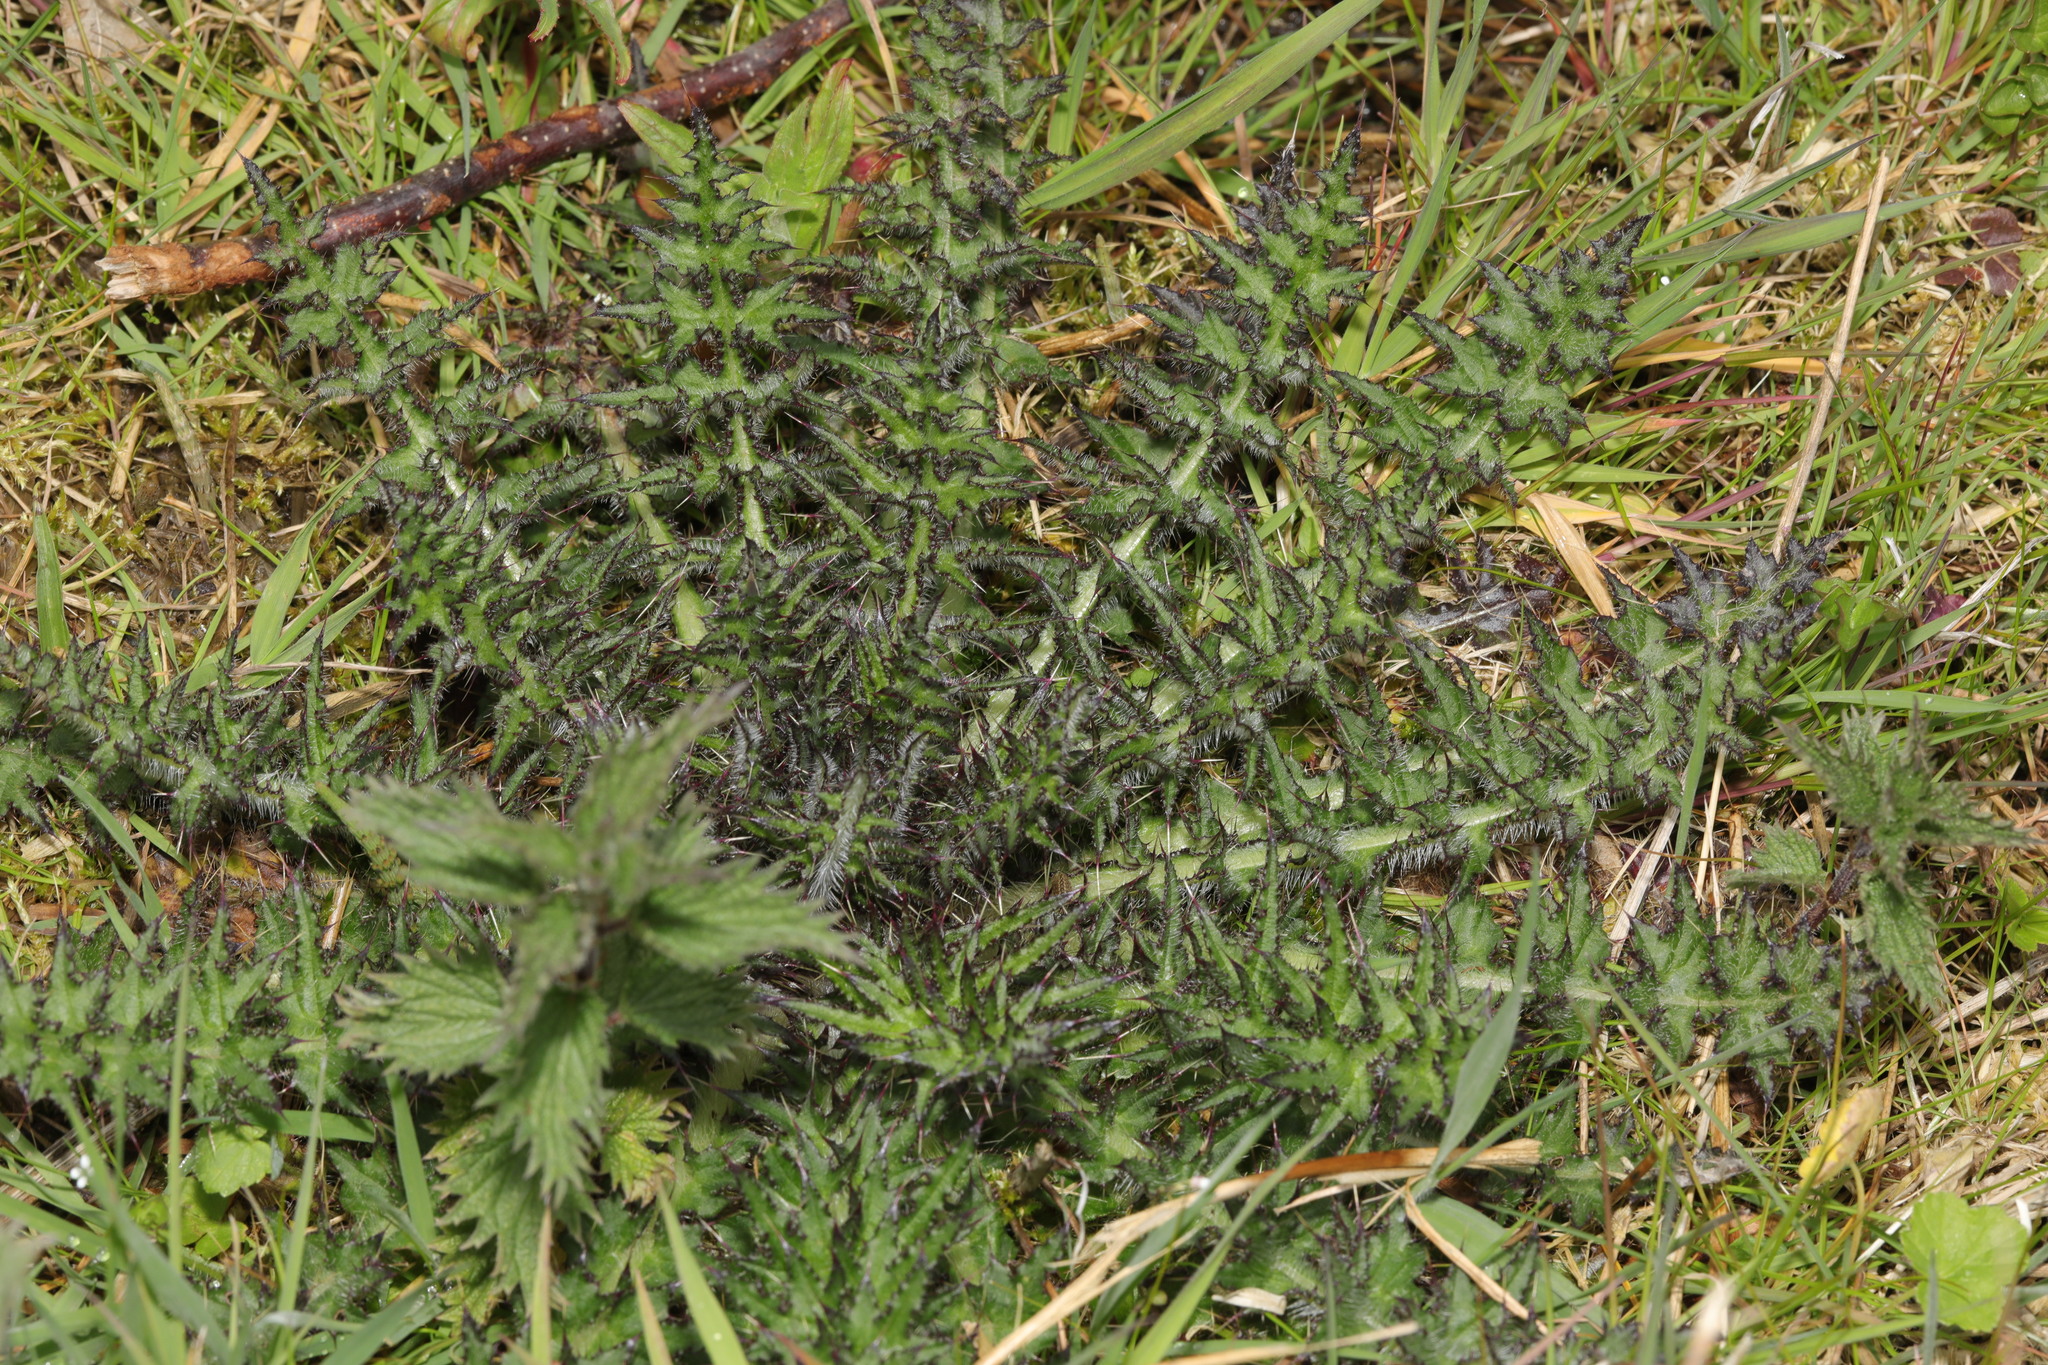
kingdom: Plantae
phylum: Tracheophyta
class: Magnoliopsida
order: Asterales
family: Asteraceae
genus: Cirsium
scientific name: Cirsium palustre
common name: Marsh thistle
